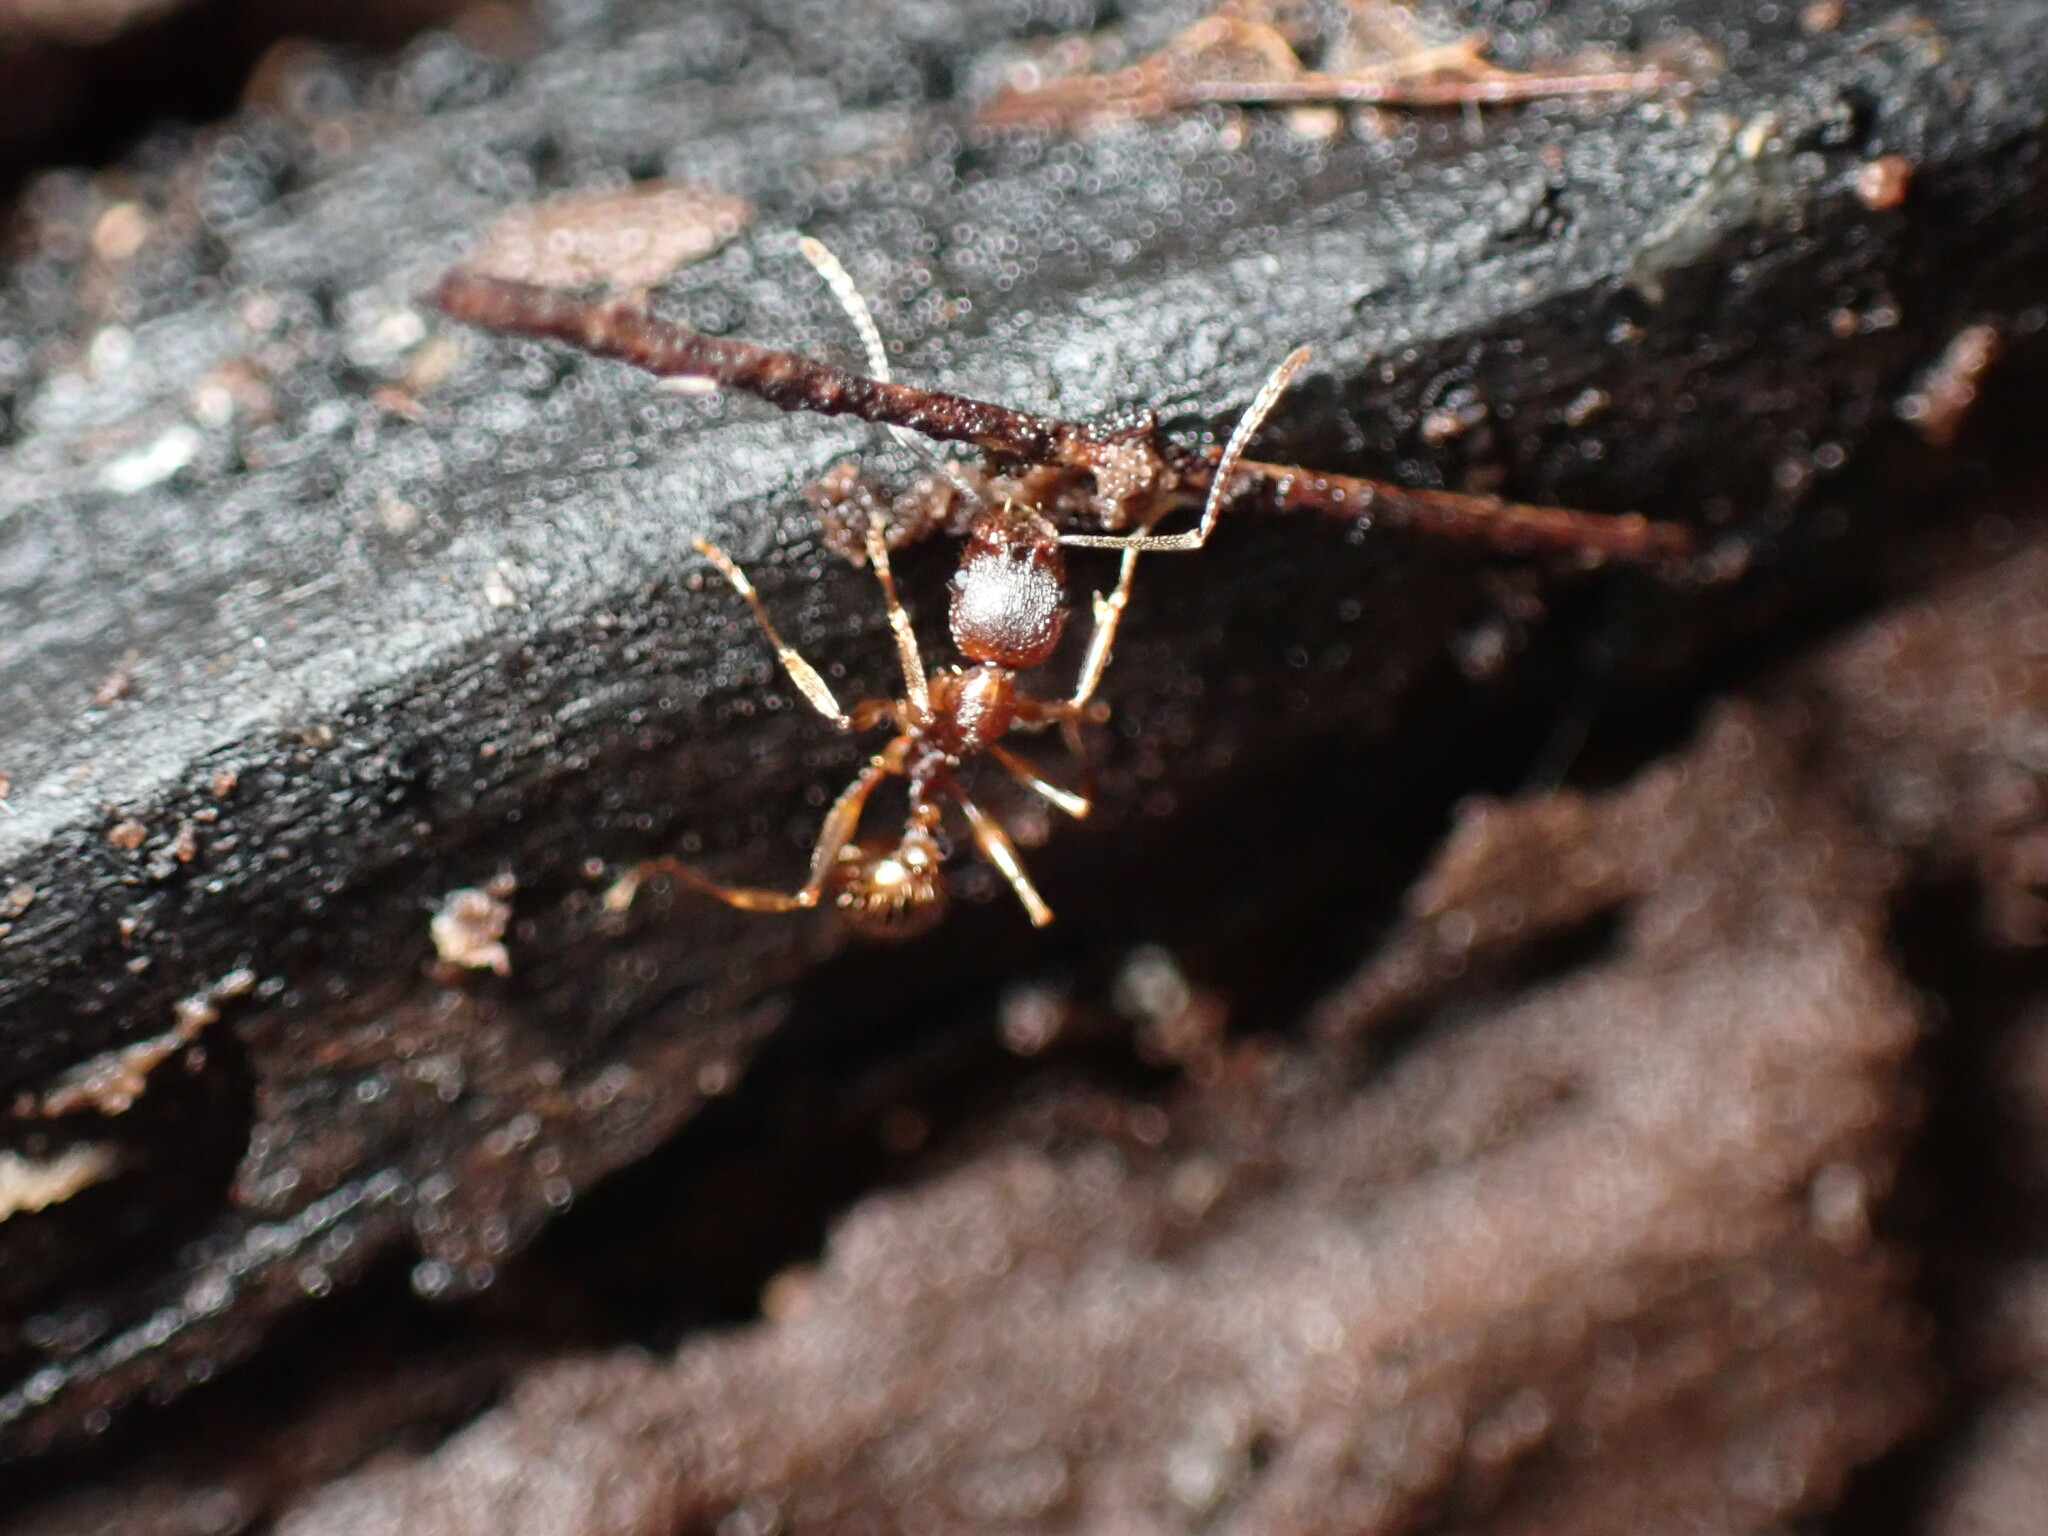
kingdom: Animalia
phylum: Arthropoda
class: Insecta
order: Hymenoptera
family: Formicidae
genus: Aphaenogaster
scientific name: Aphaenogaster rudis
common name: Winnow ant
